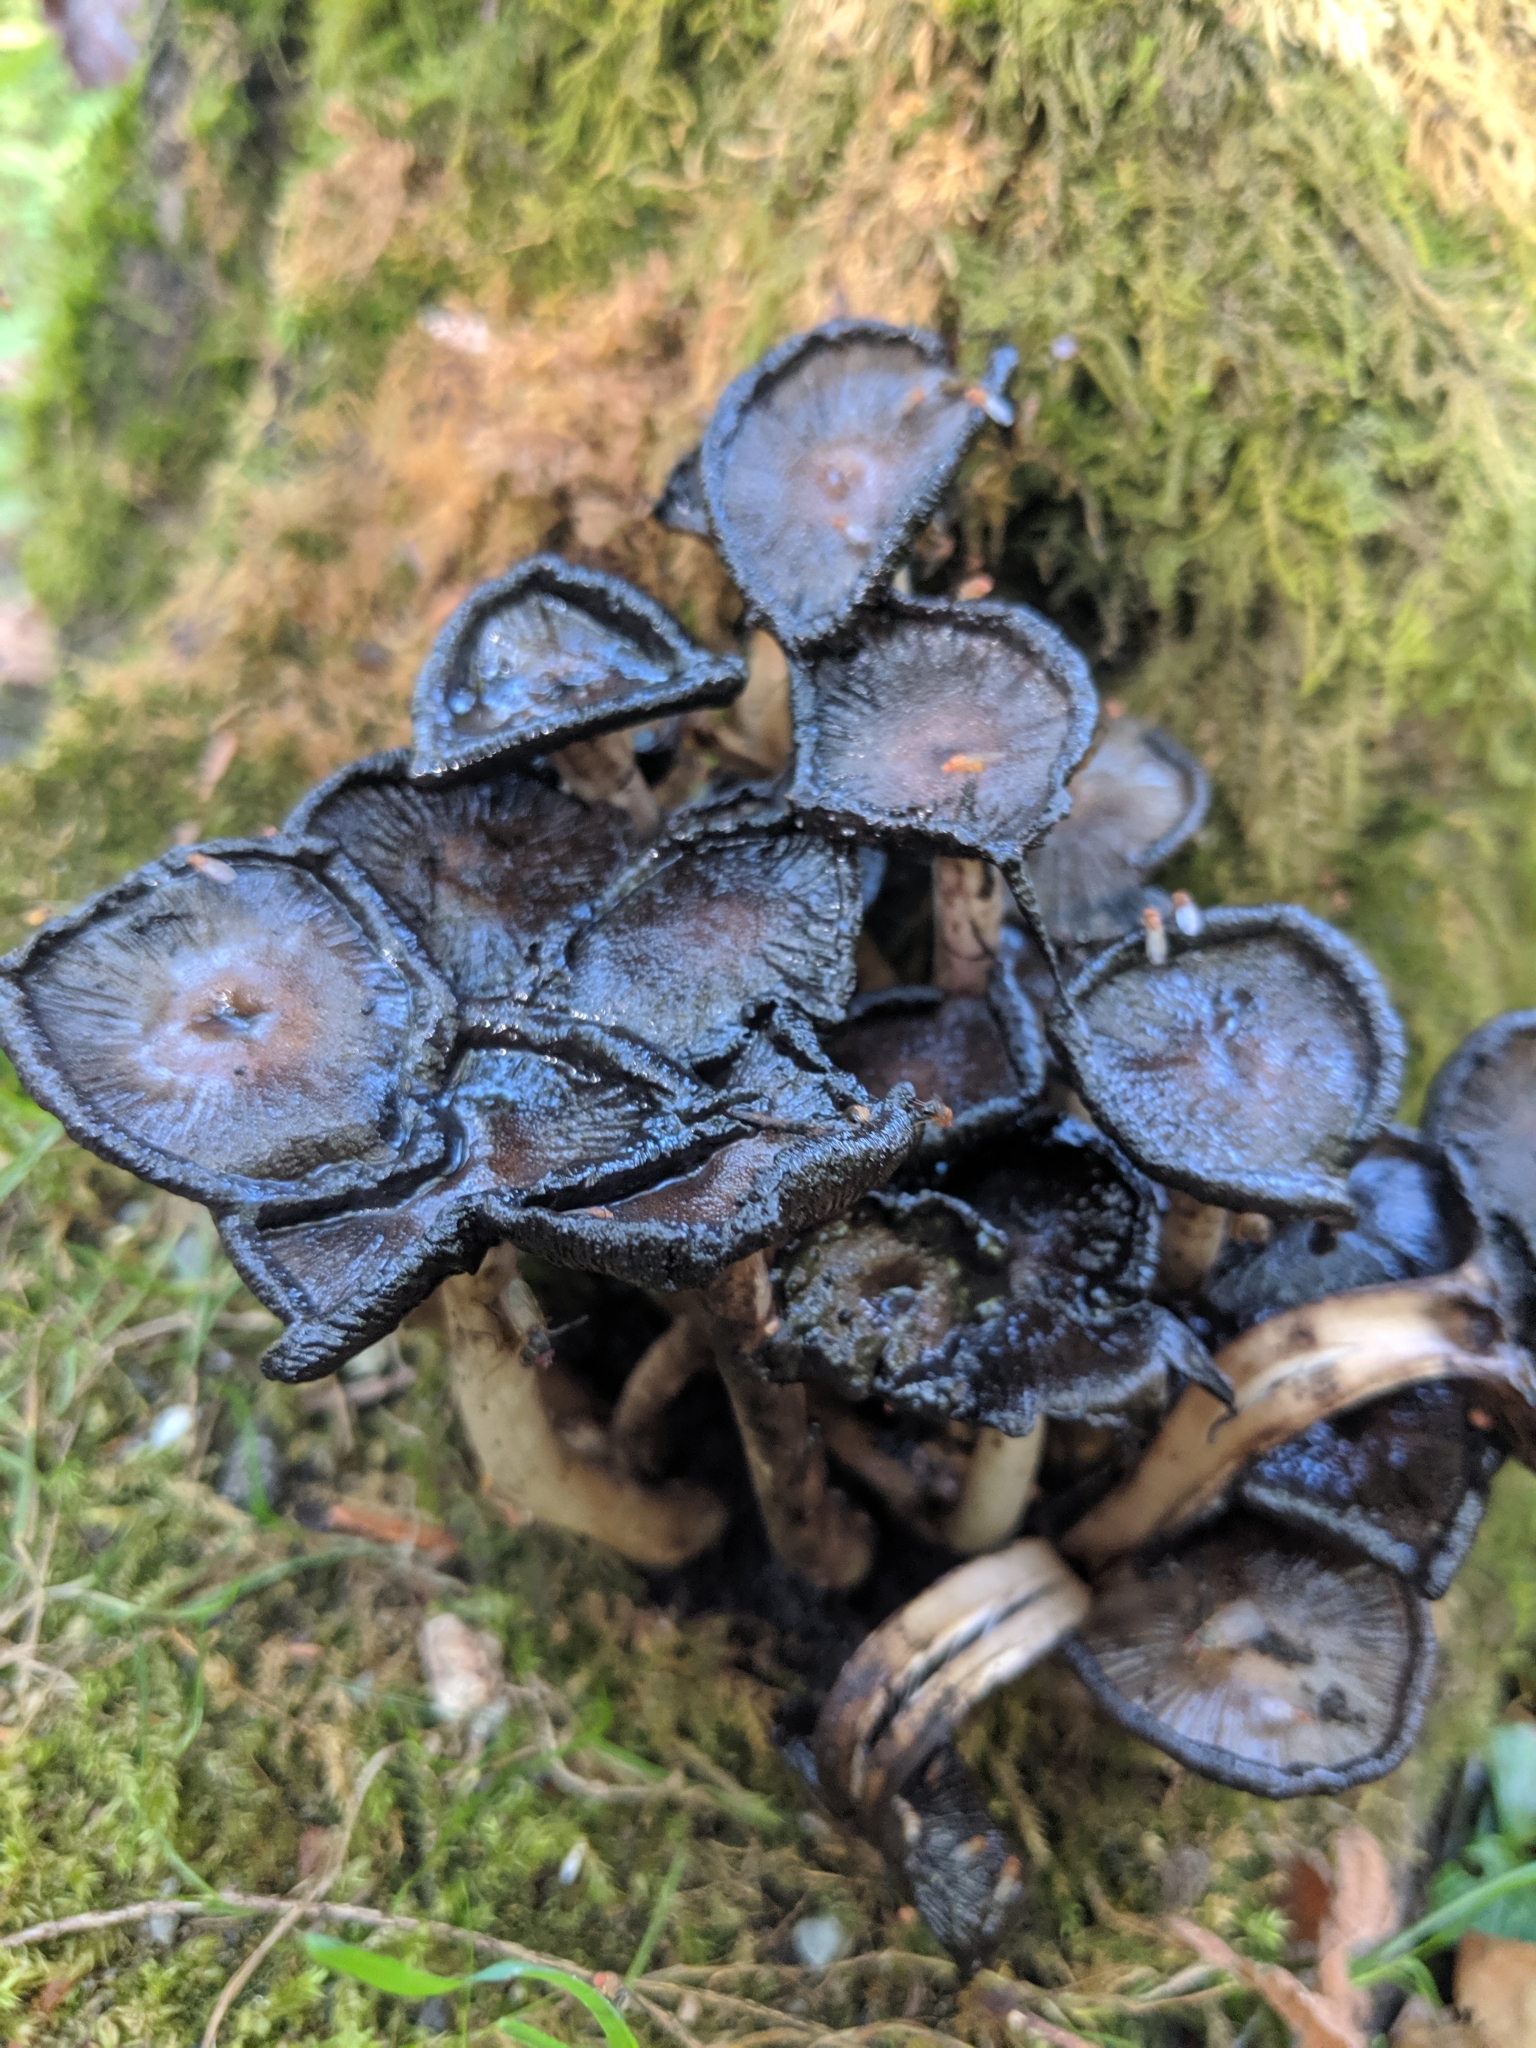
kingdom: Fungi
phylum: Basidiomycota
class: Agaricomycetes
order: Agaricales
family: Psathyrellaceae
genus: Coprinopsis
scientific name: Coprinopsis lagopus
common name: Hare'sfoot inkcap
